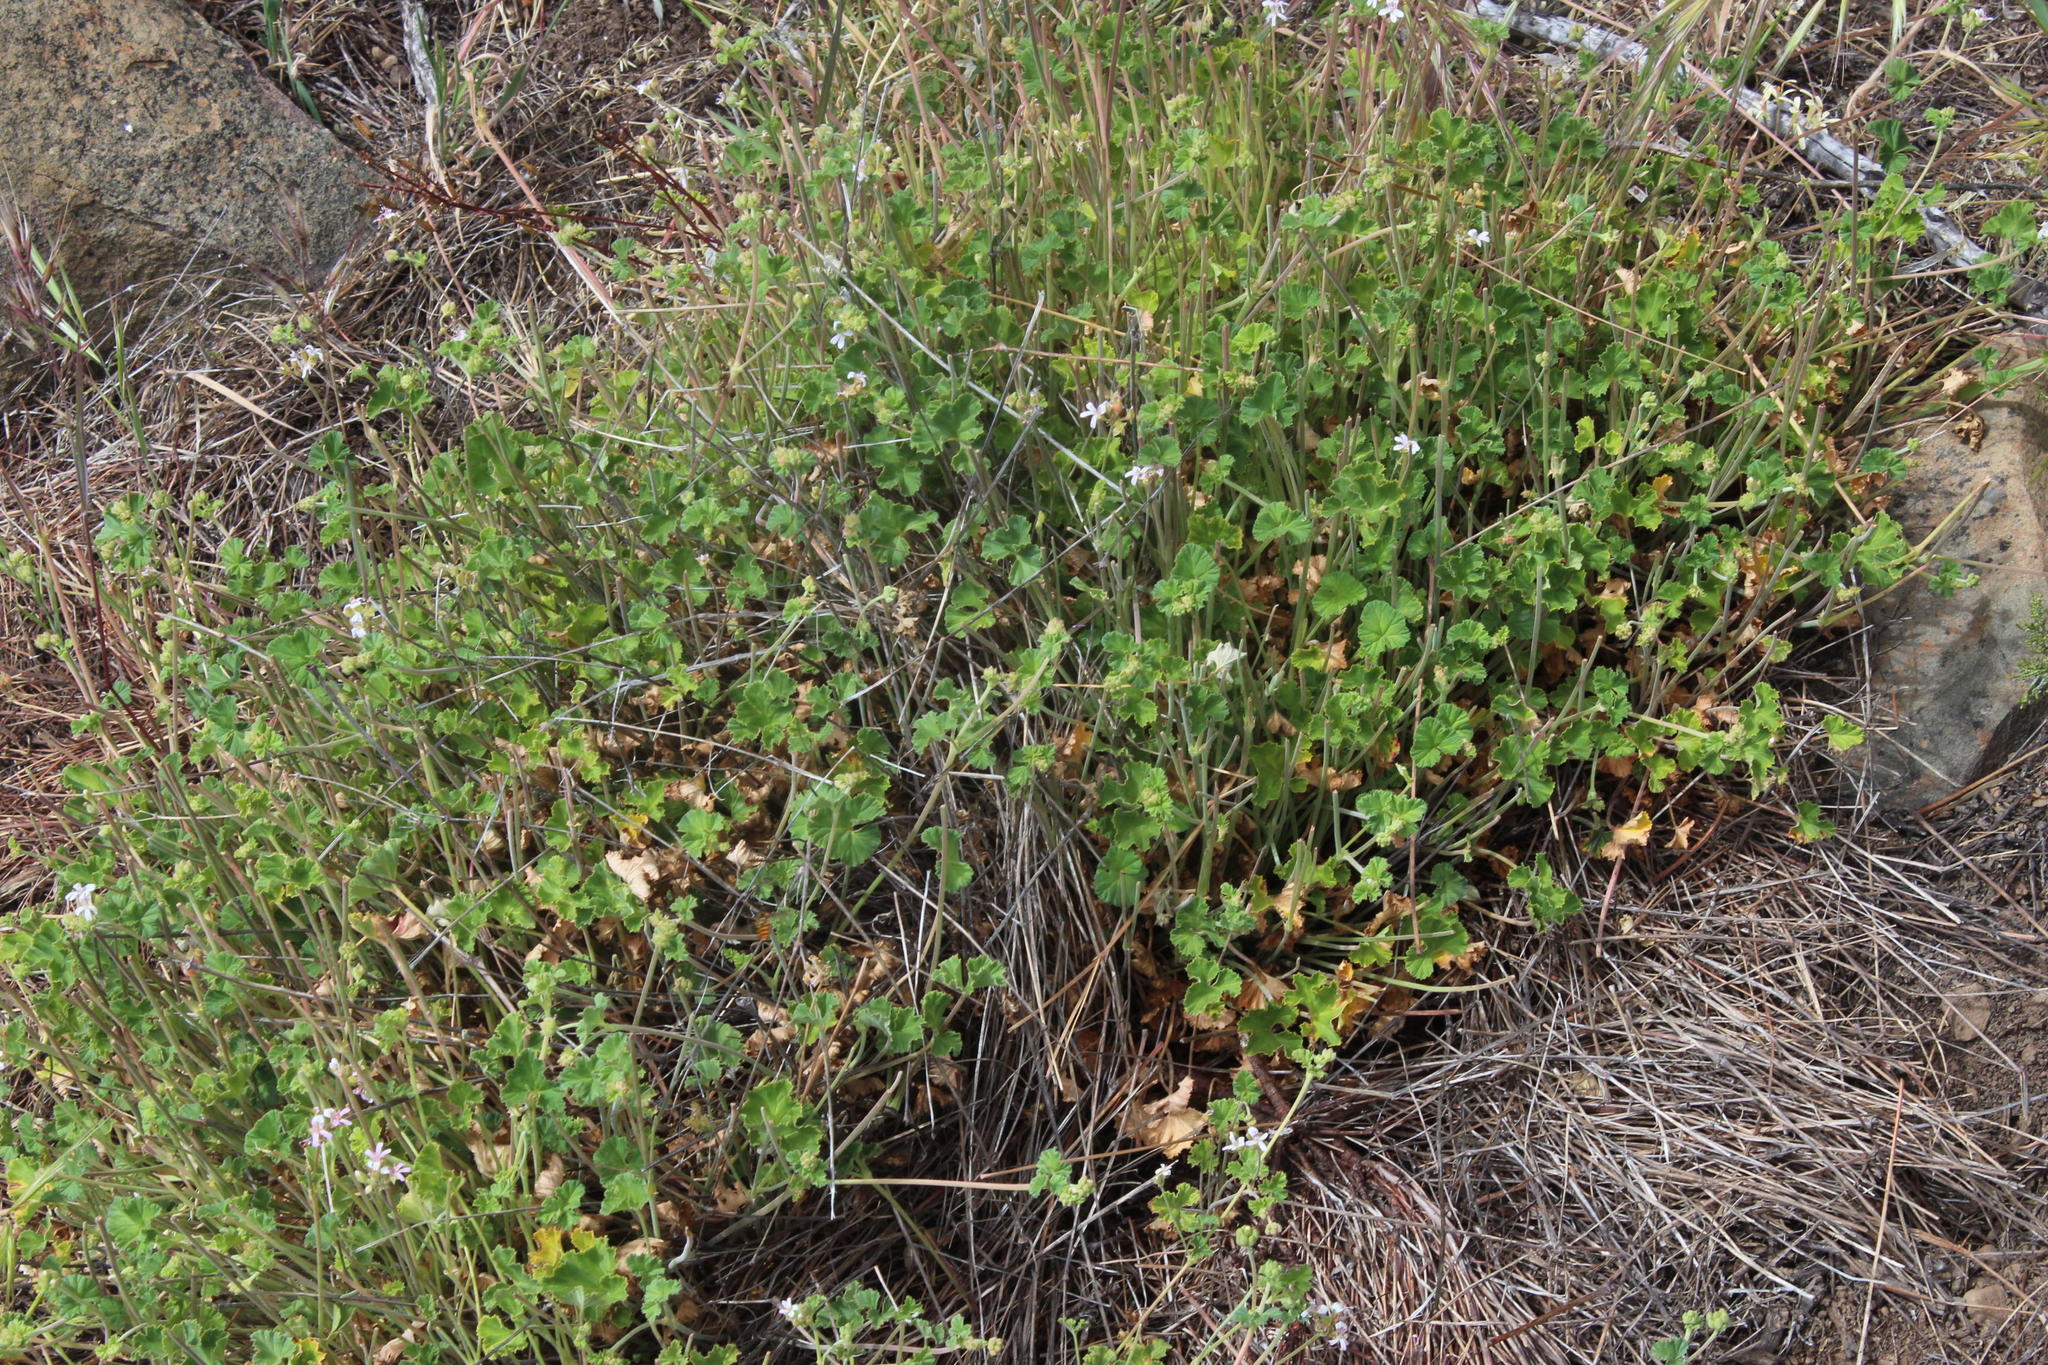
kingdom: Plantae
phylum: Tracheophyta
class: Magnoliopsida
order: Geraniales
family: Geraniaceae
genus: Pelargonium
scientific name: Pelargonium hypoleucum
